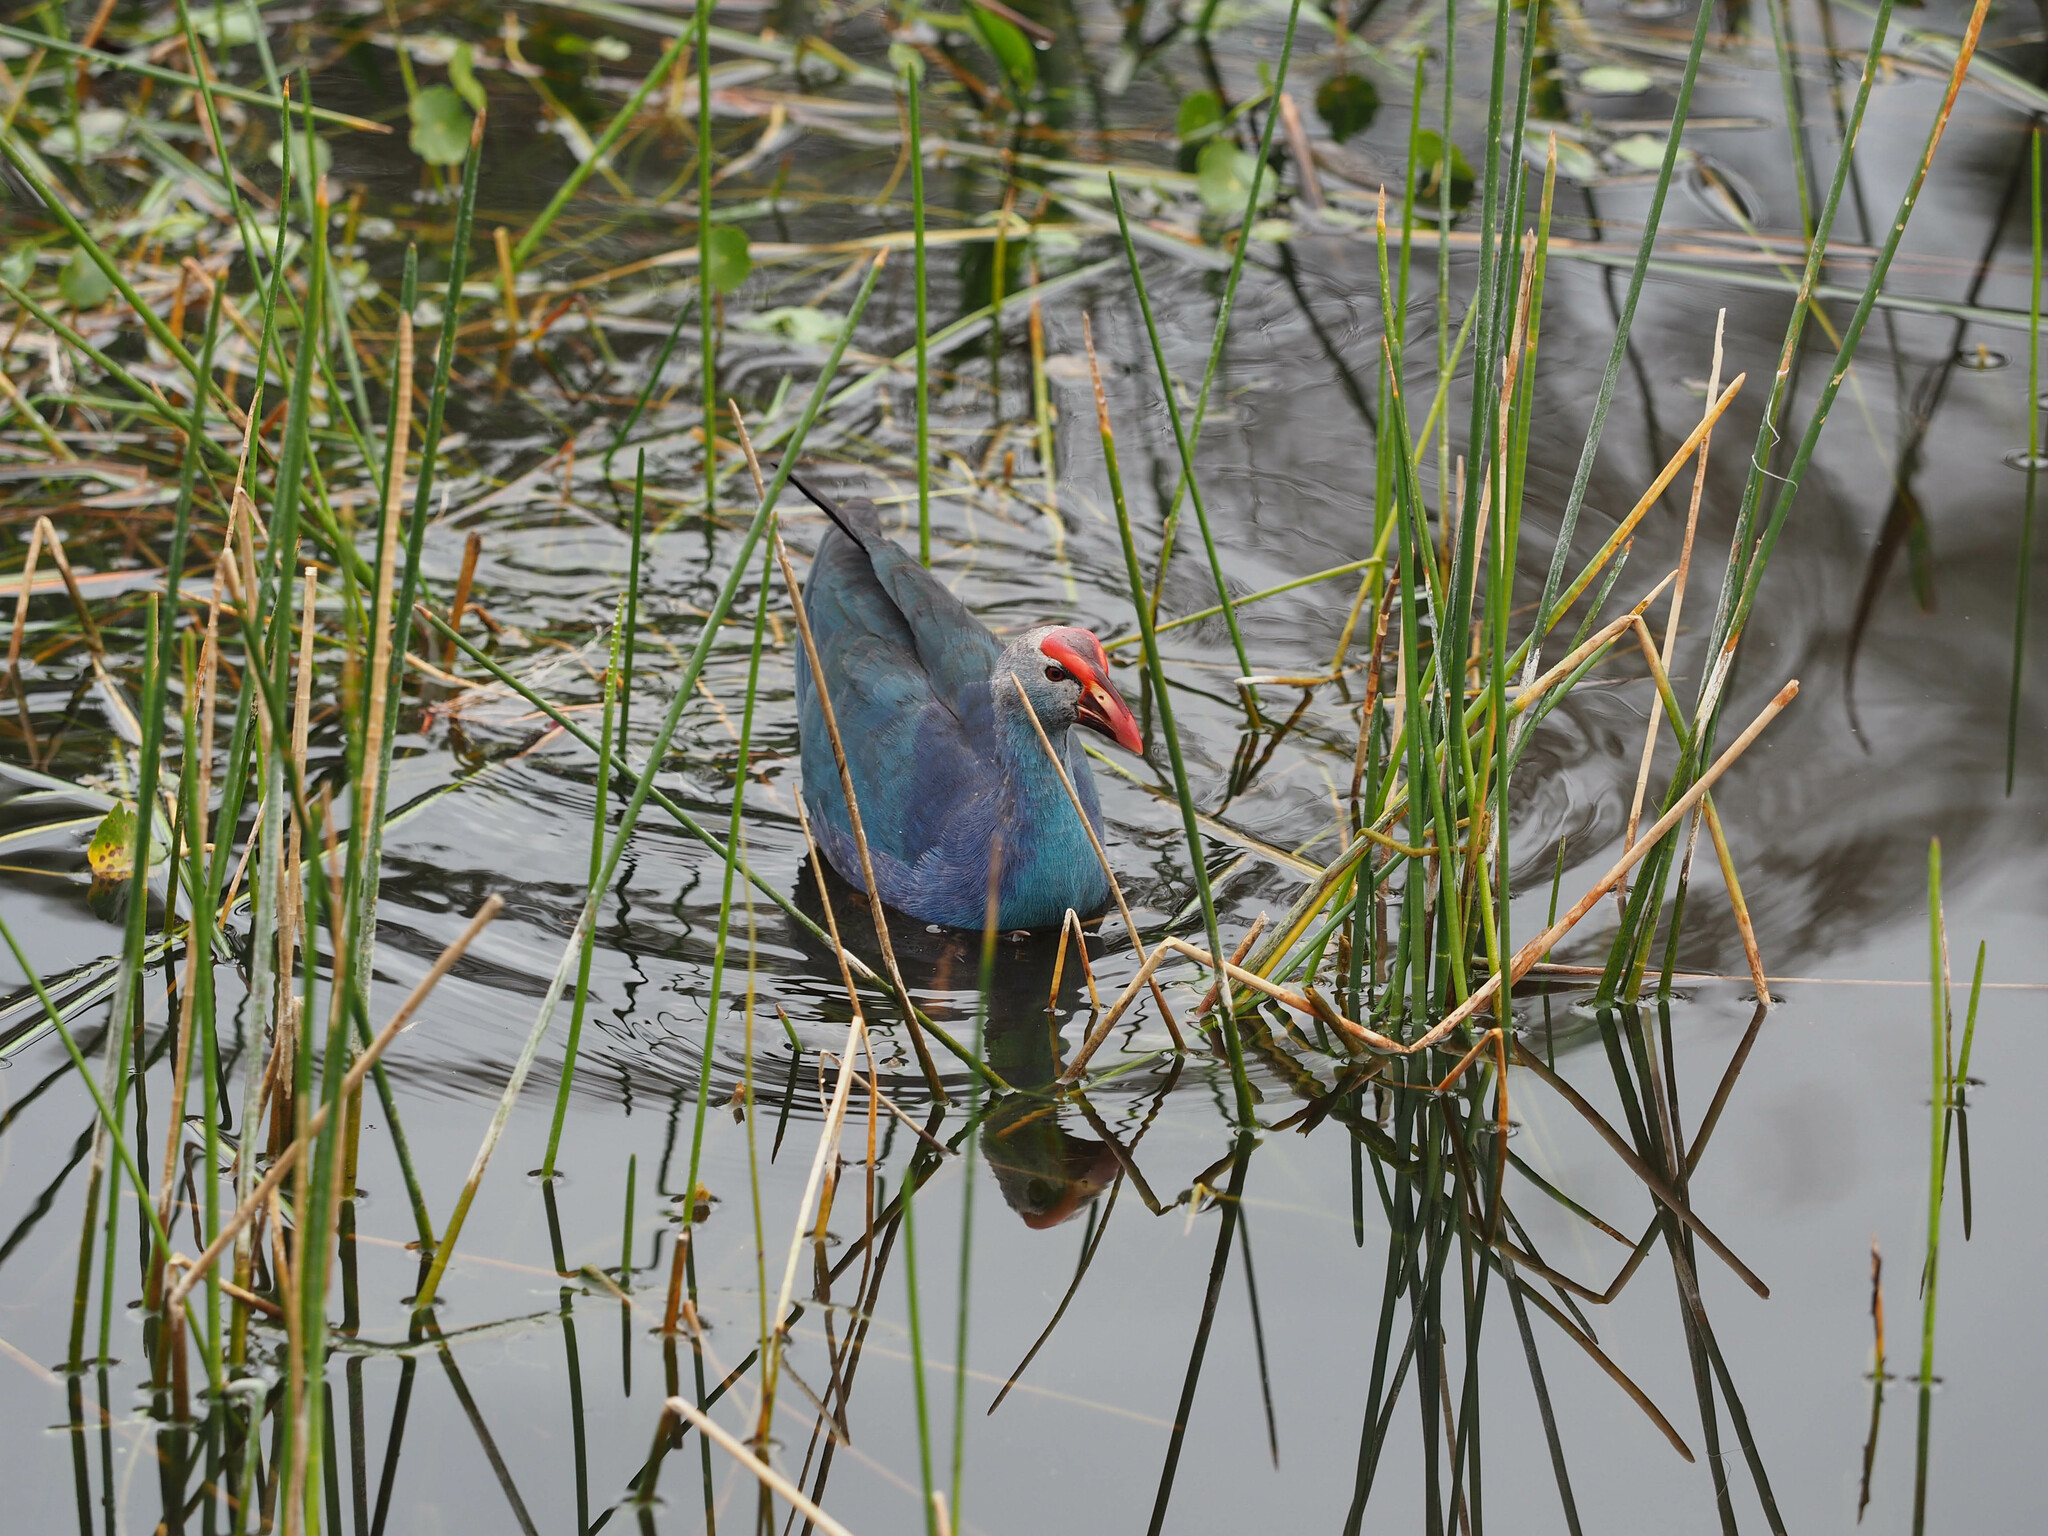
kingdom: Animalia
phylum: Chordata
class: Aves
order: Gruiformes
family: Rallidae
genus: Porphyrio
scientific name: Porphyrio porphyrio
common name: Purple swamphen
